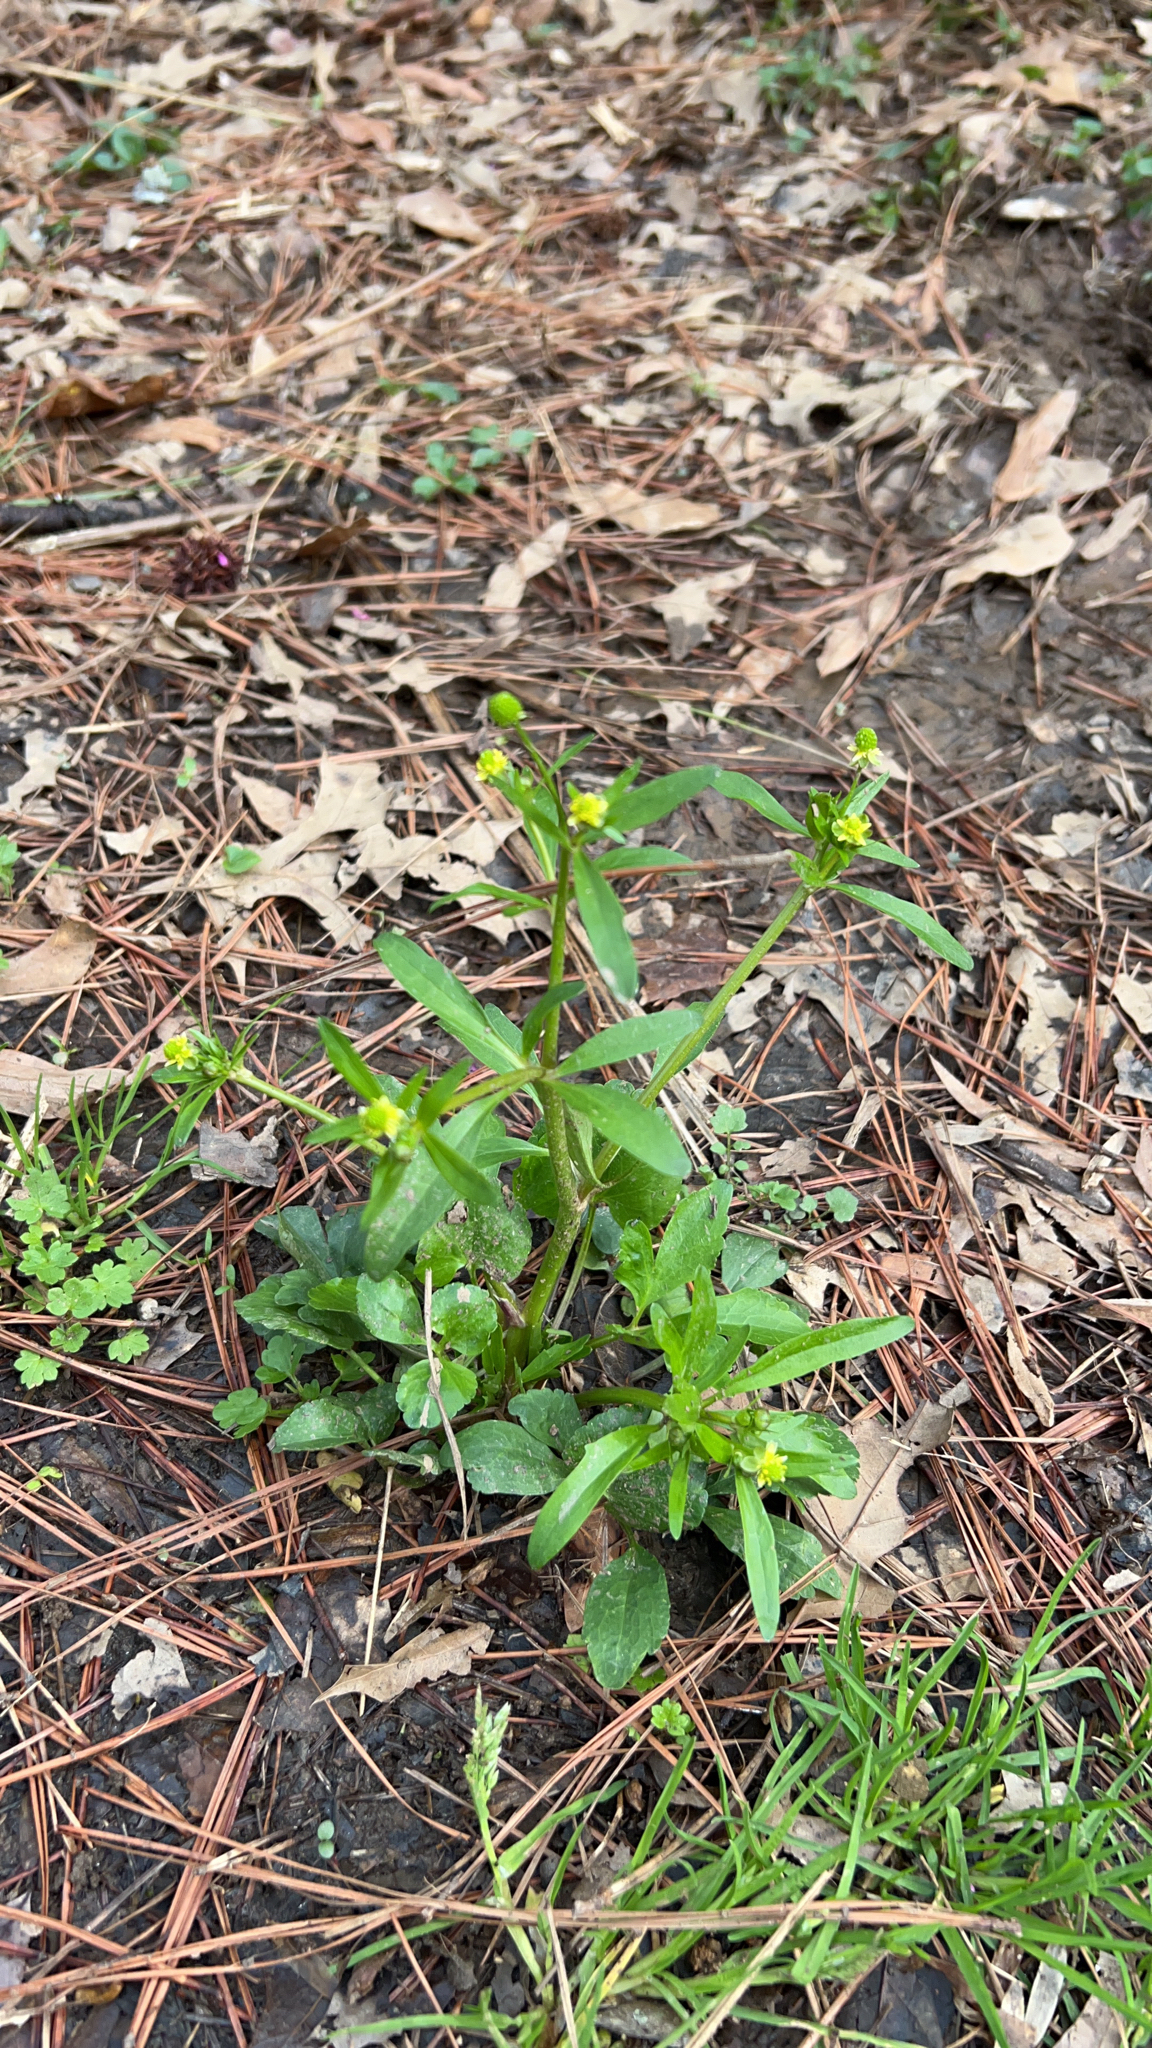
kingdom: Plantae
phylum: Tracheophyta
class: Magnoliopsida
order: Ranunculales
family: Ranunculaceae
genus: Ranunculus
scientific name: Ranunculus abortivus
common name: Early wood buttercup
